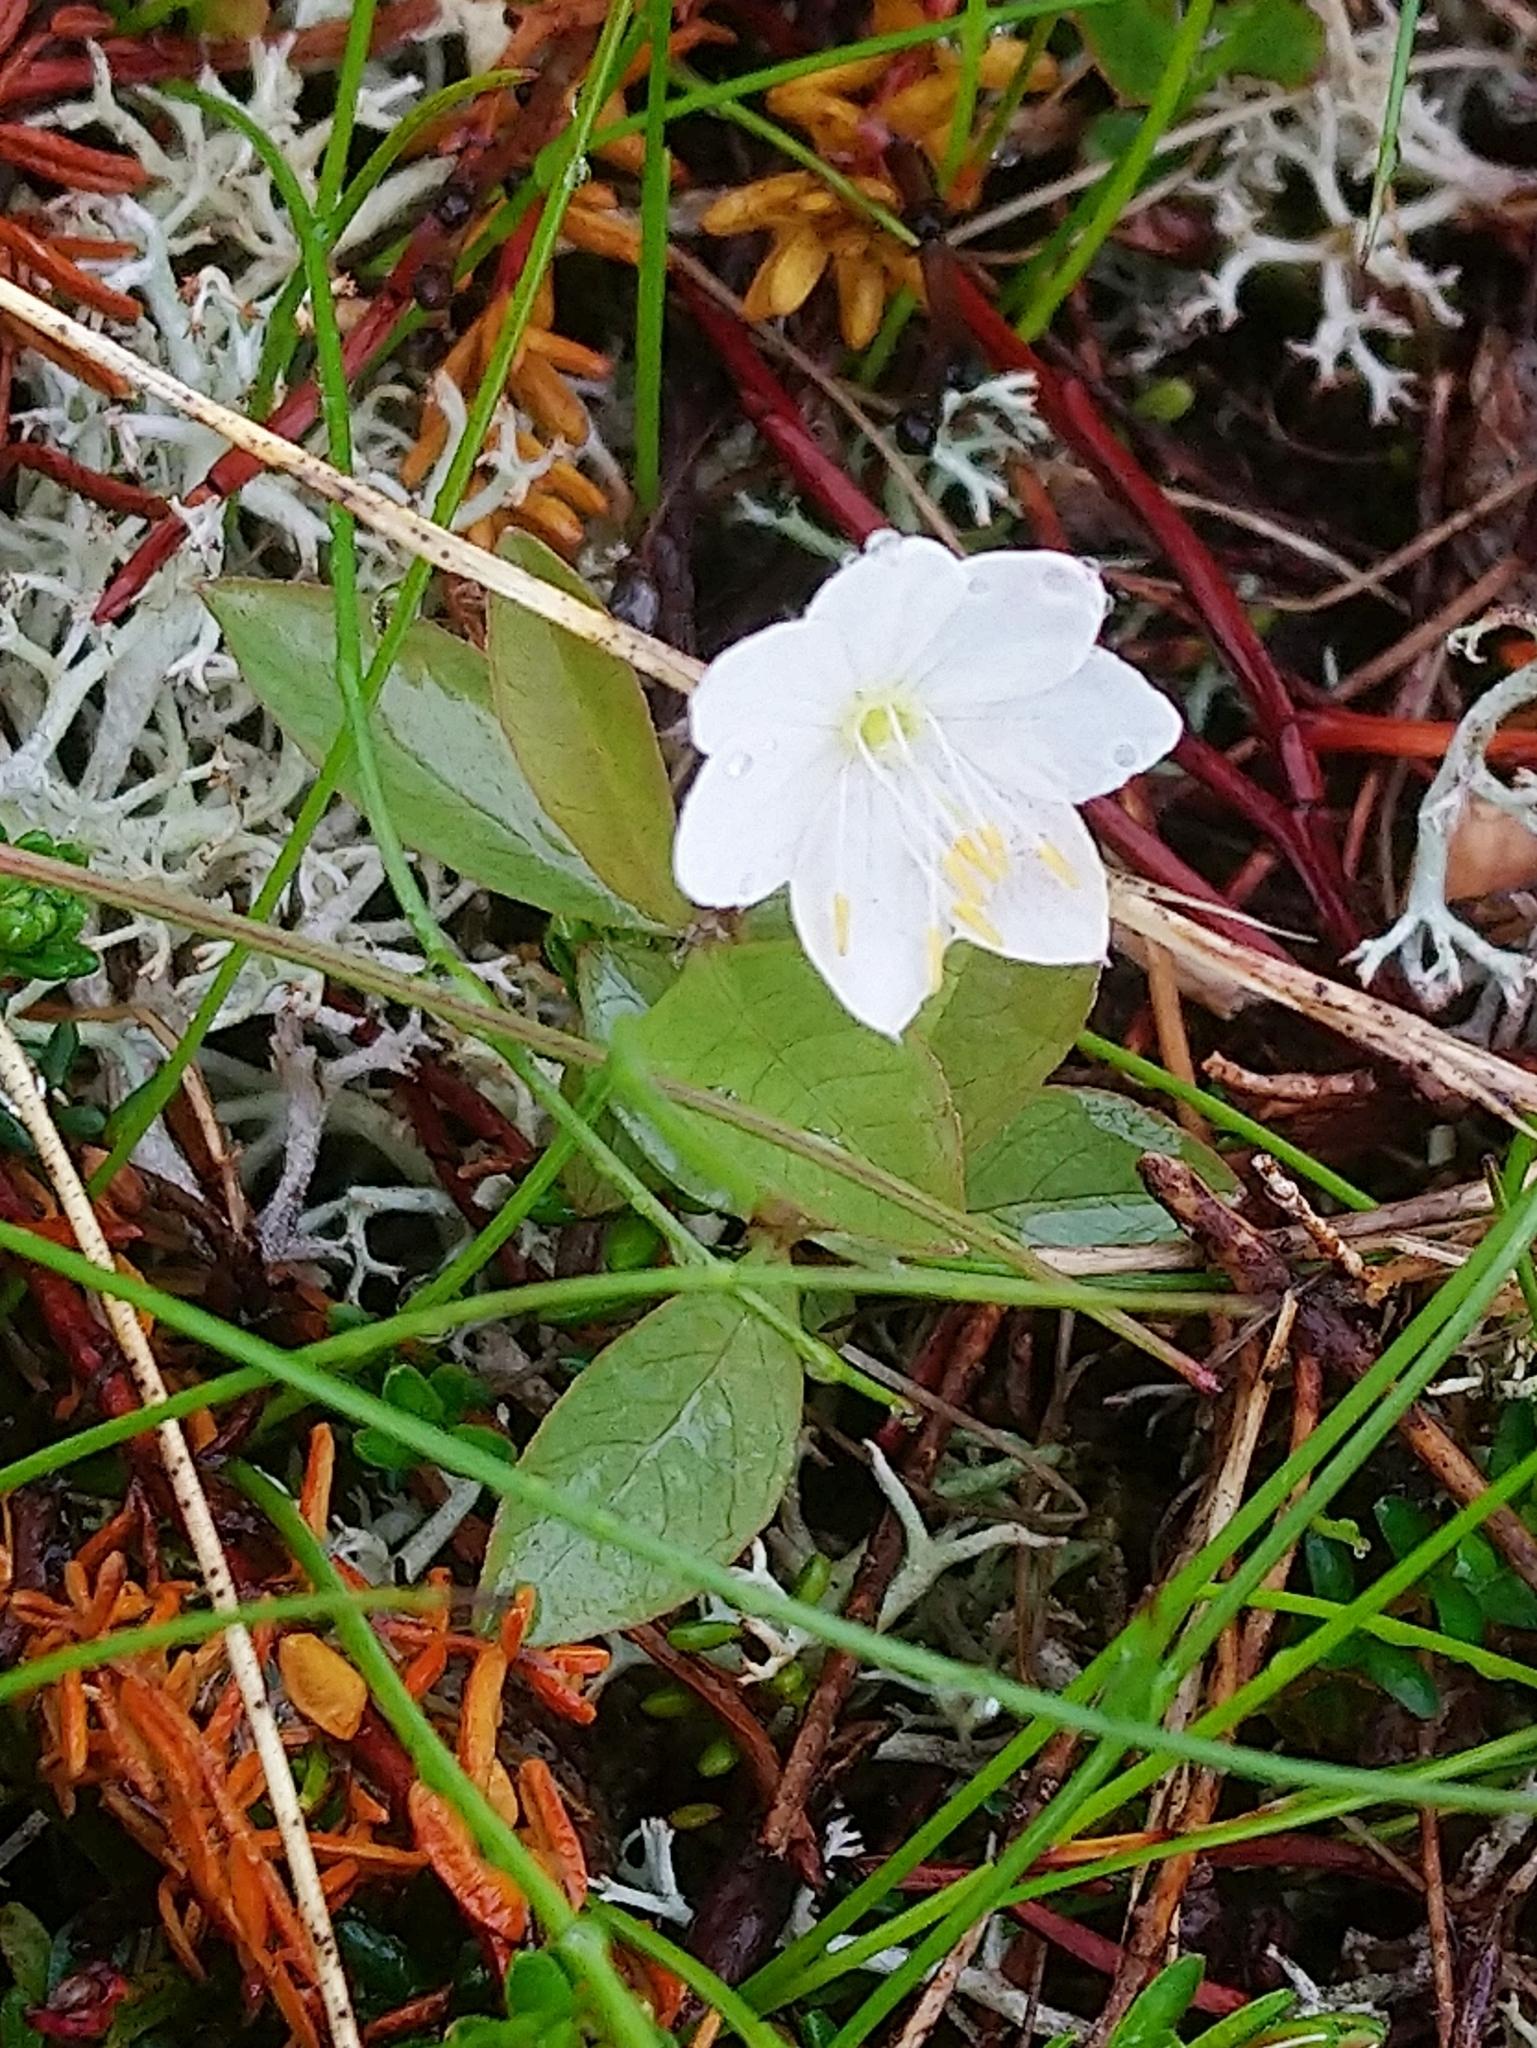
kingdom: Plantae
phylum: Tracheophyta
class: Magnoliopsida
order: Ericales
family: Primulaceae
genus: Lysimachia
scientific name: Lysimachia europaea
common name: Arctic starflower
